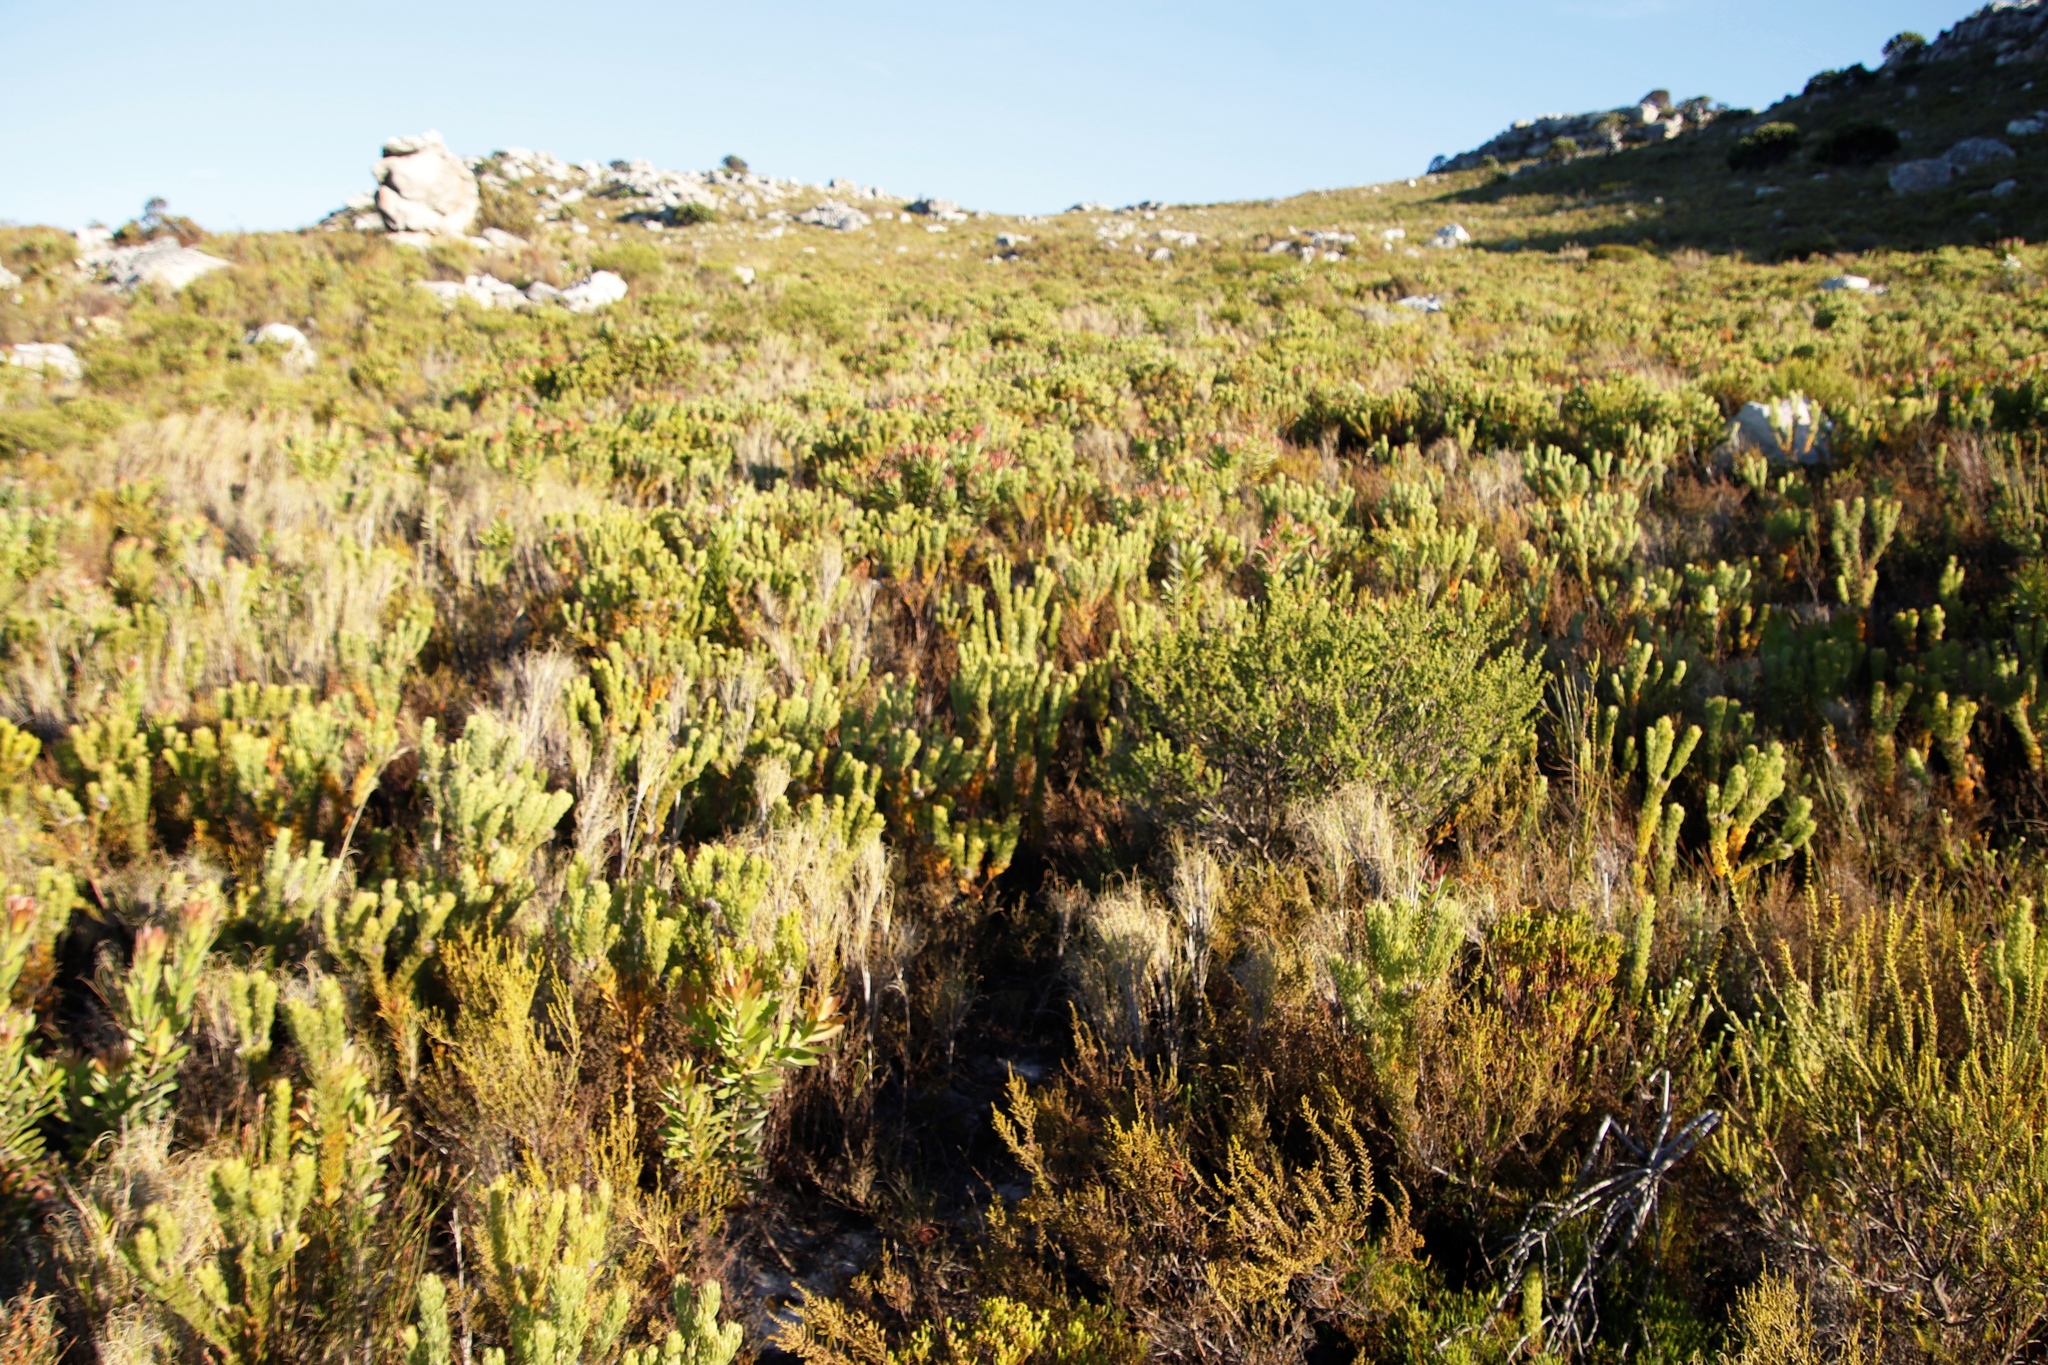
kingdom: Plantae
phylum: Tracheophyta
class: Magnoliopsida
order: Proteales
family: Proteaceae
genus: Serruria
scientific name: Serruria villosa
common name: Golden spiderhead
